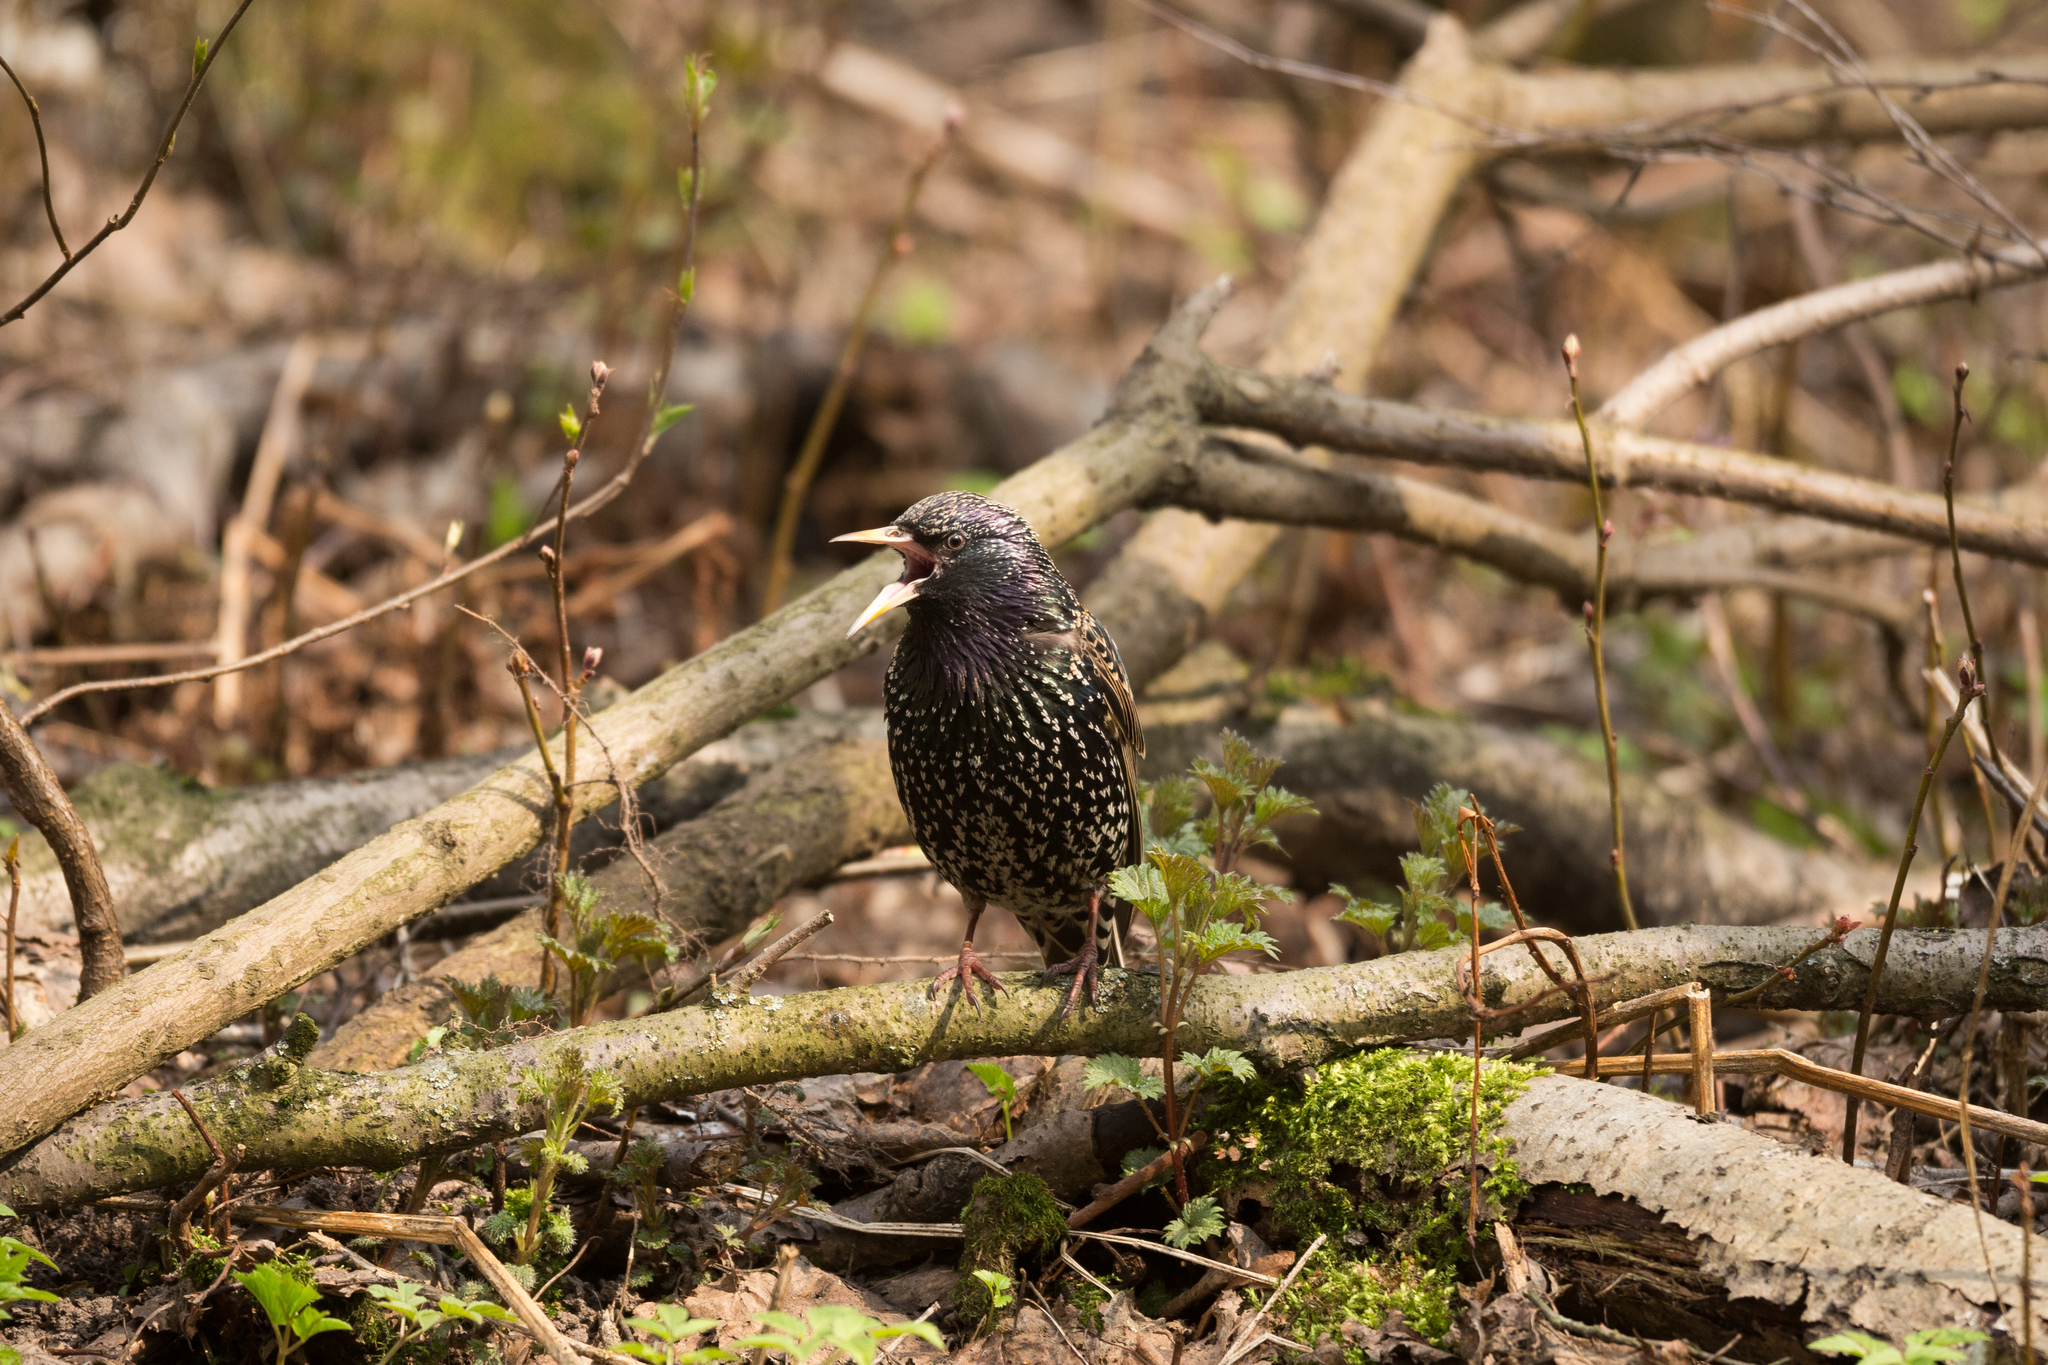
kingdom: Animalia
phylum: Chordata
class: Aves
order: Passeriformes
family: Sturnidae
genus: Sturnus
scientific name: Sturnus vulgaris
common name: Common starling
